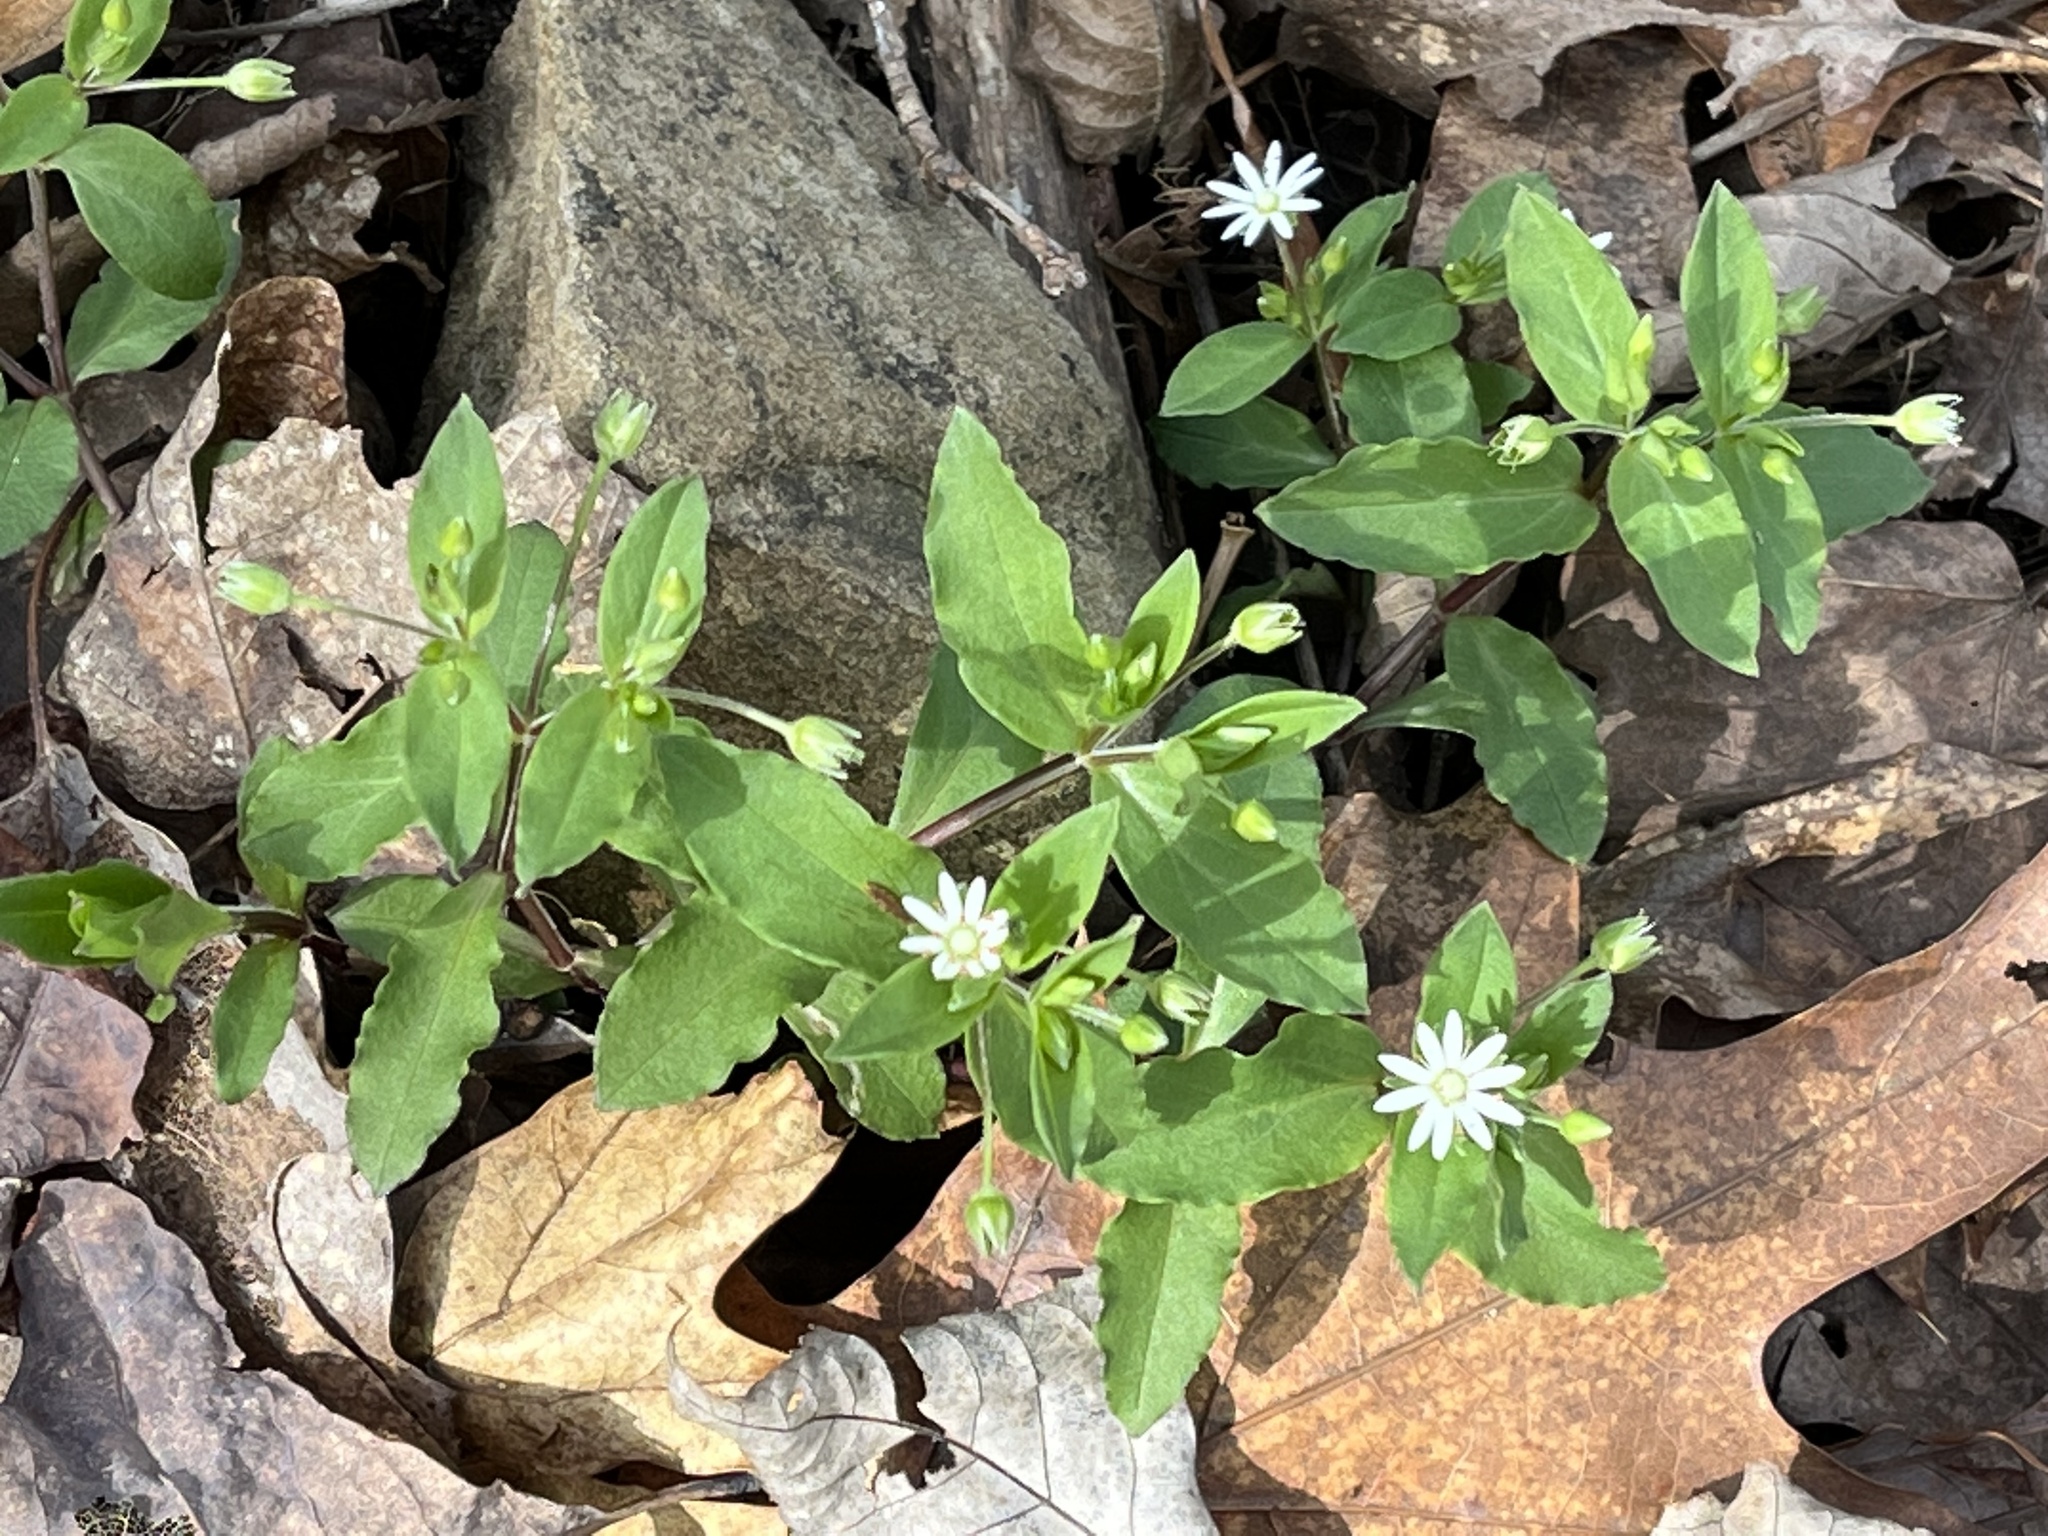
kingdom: Plantae
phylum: Tracheophyta
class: Magnoliopsida
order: Caryophyllales
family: Caryophyllaceae
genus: Stellaria
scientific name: Stellaria pubera
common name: Star chickweed
